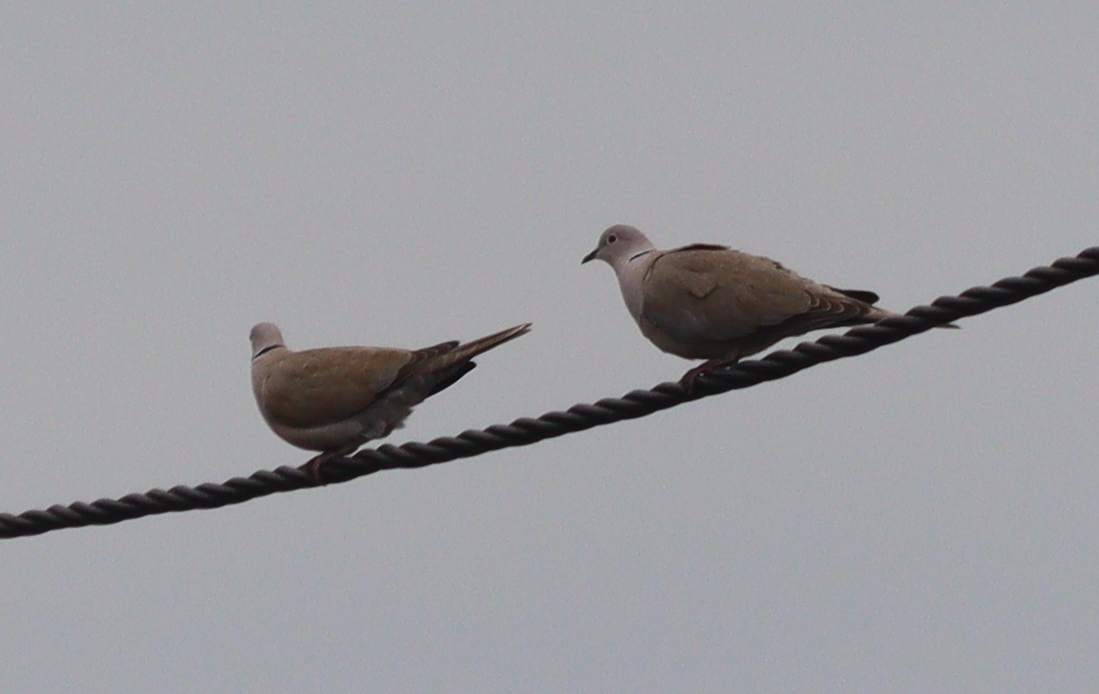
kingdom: Animalia
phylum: Chordata
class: Aves
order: Columbiformes
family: Columbidae
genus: Streptopelia
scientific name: Streptopelia decaocto
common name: Eurasian collared dove
